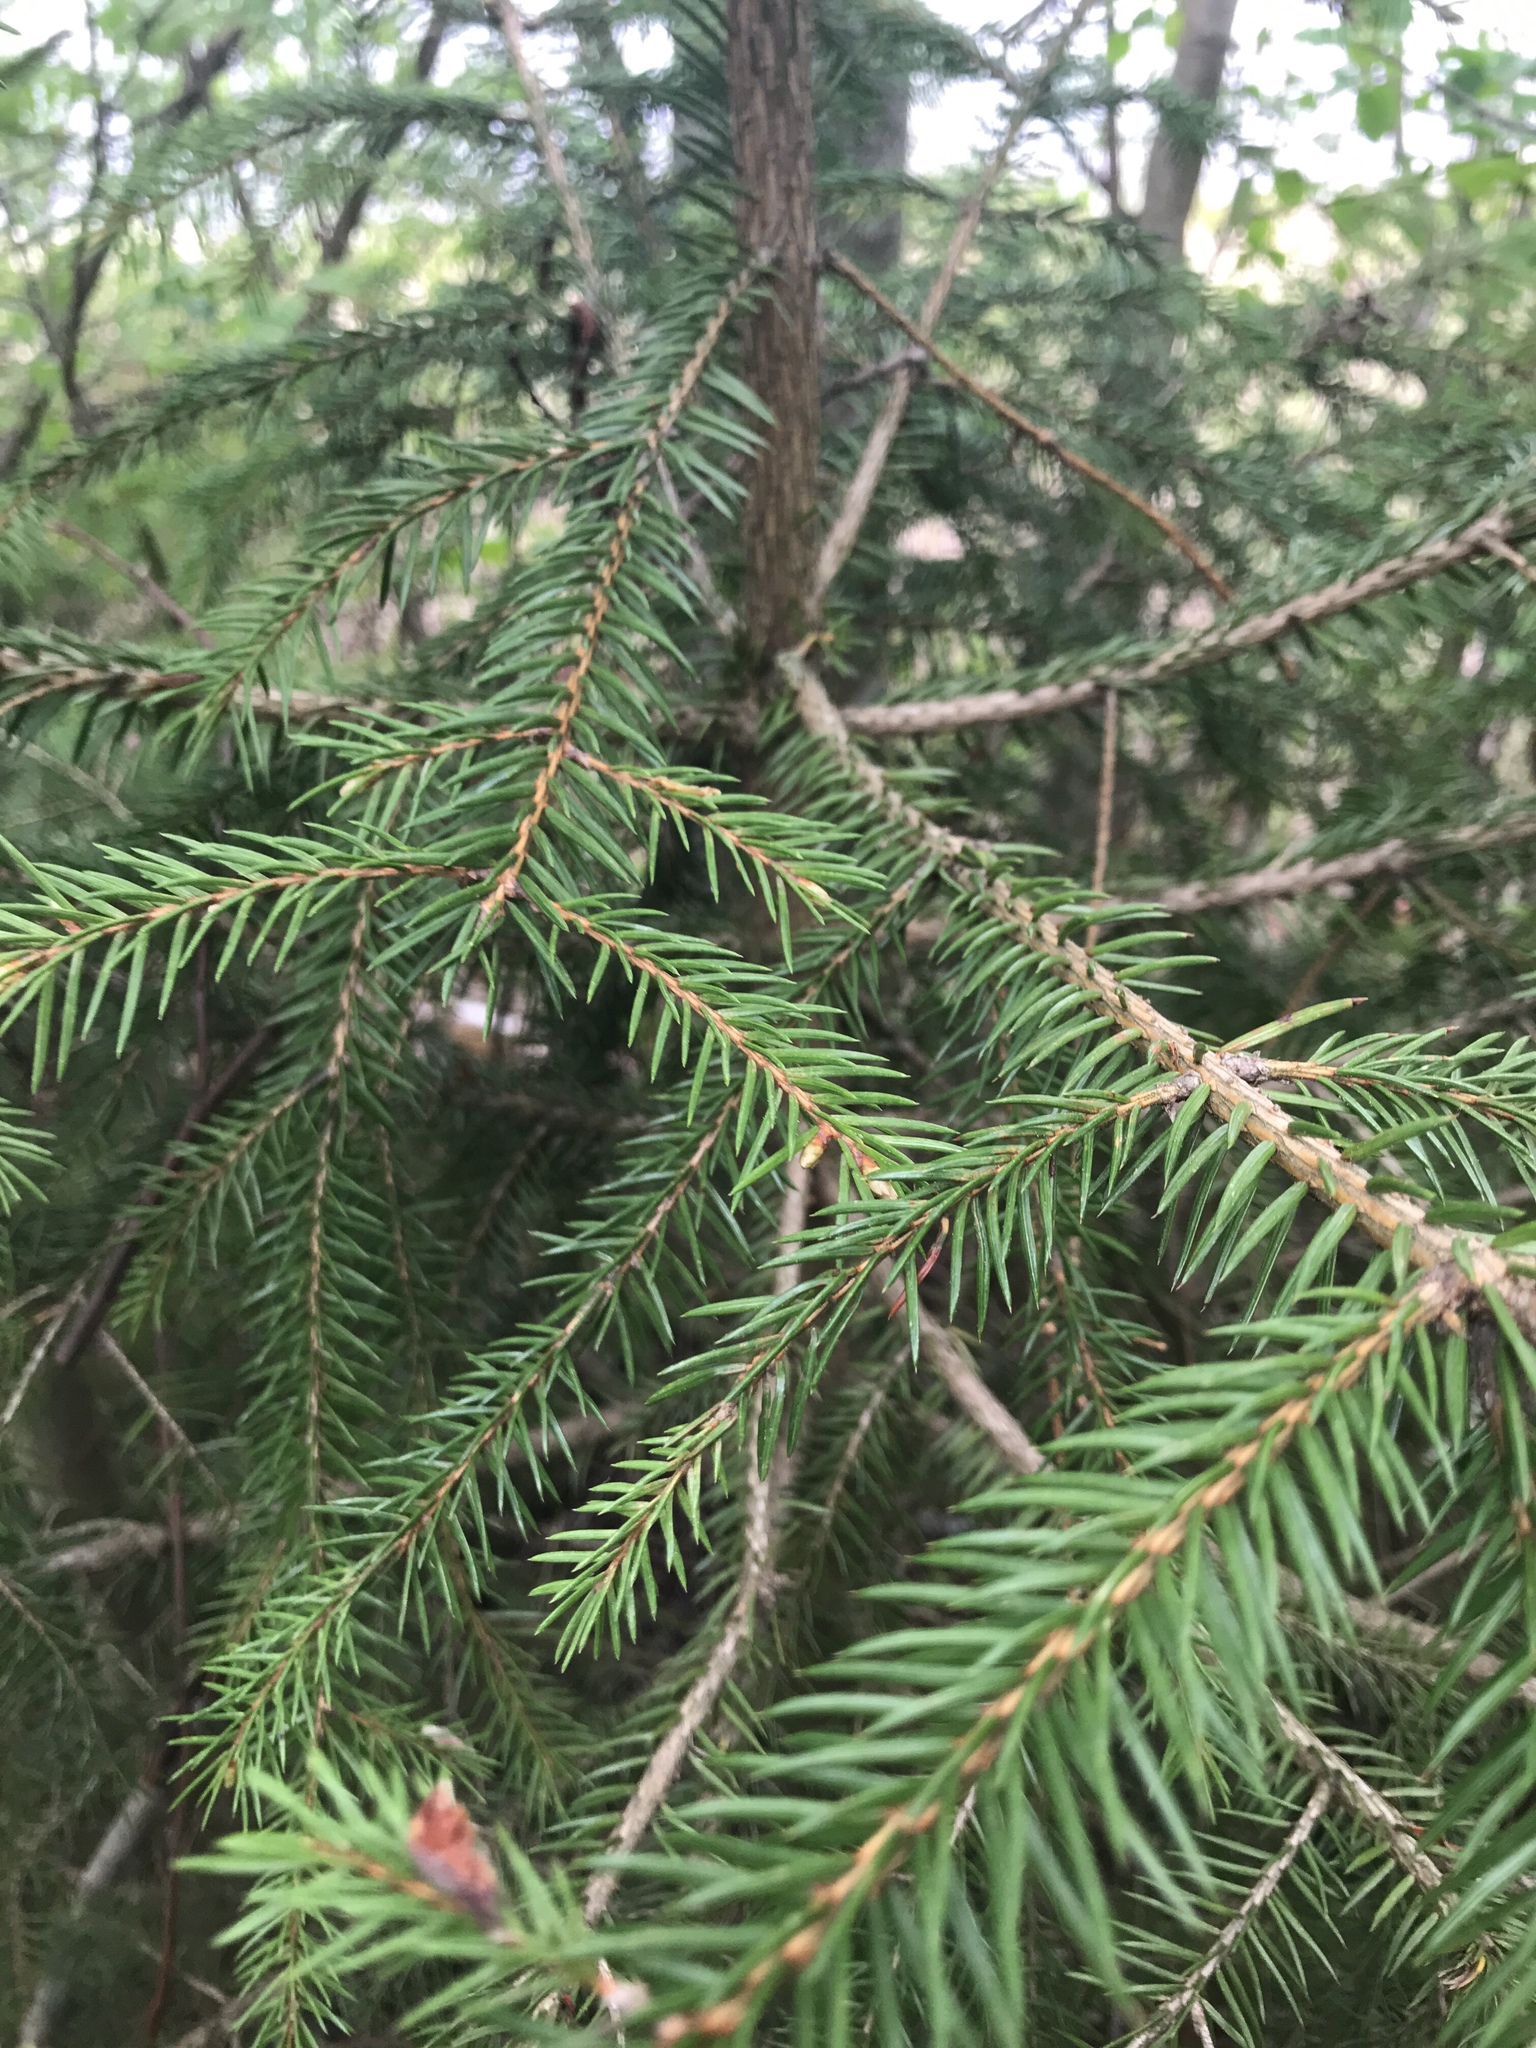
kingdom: Plantae
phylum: Tracheophyta
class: Pinopsida
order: Pinales
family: Pinaceae
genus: Picea
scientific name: Picea abies
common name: Norway spruce
